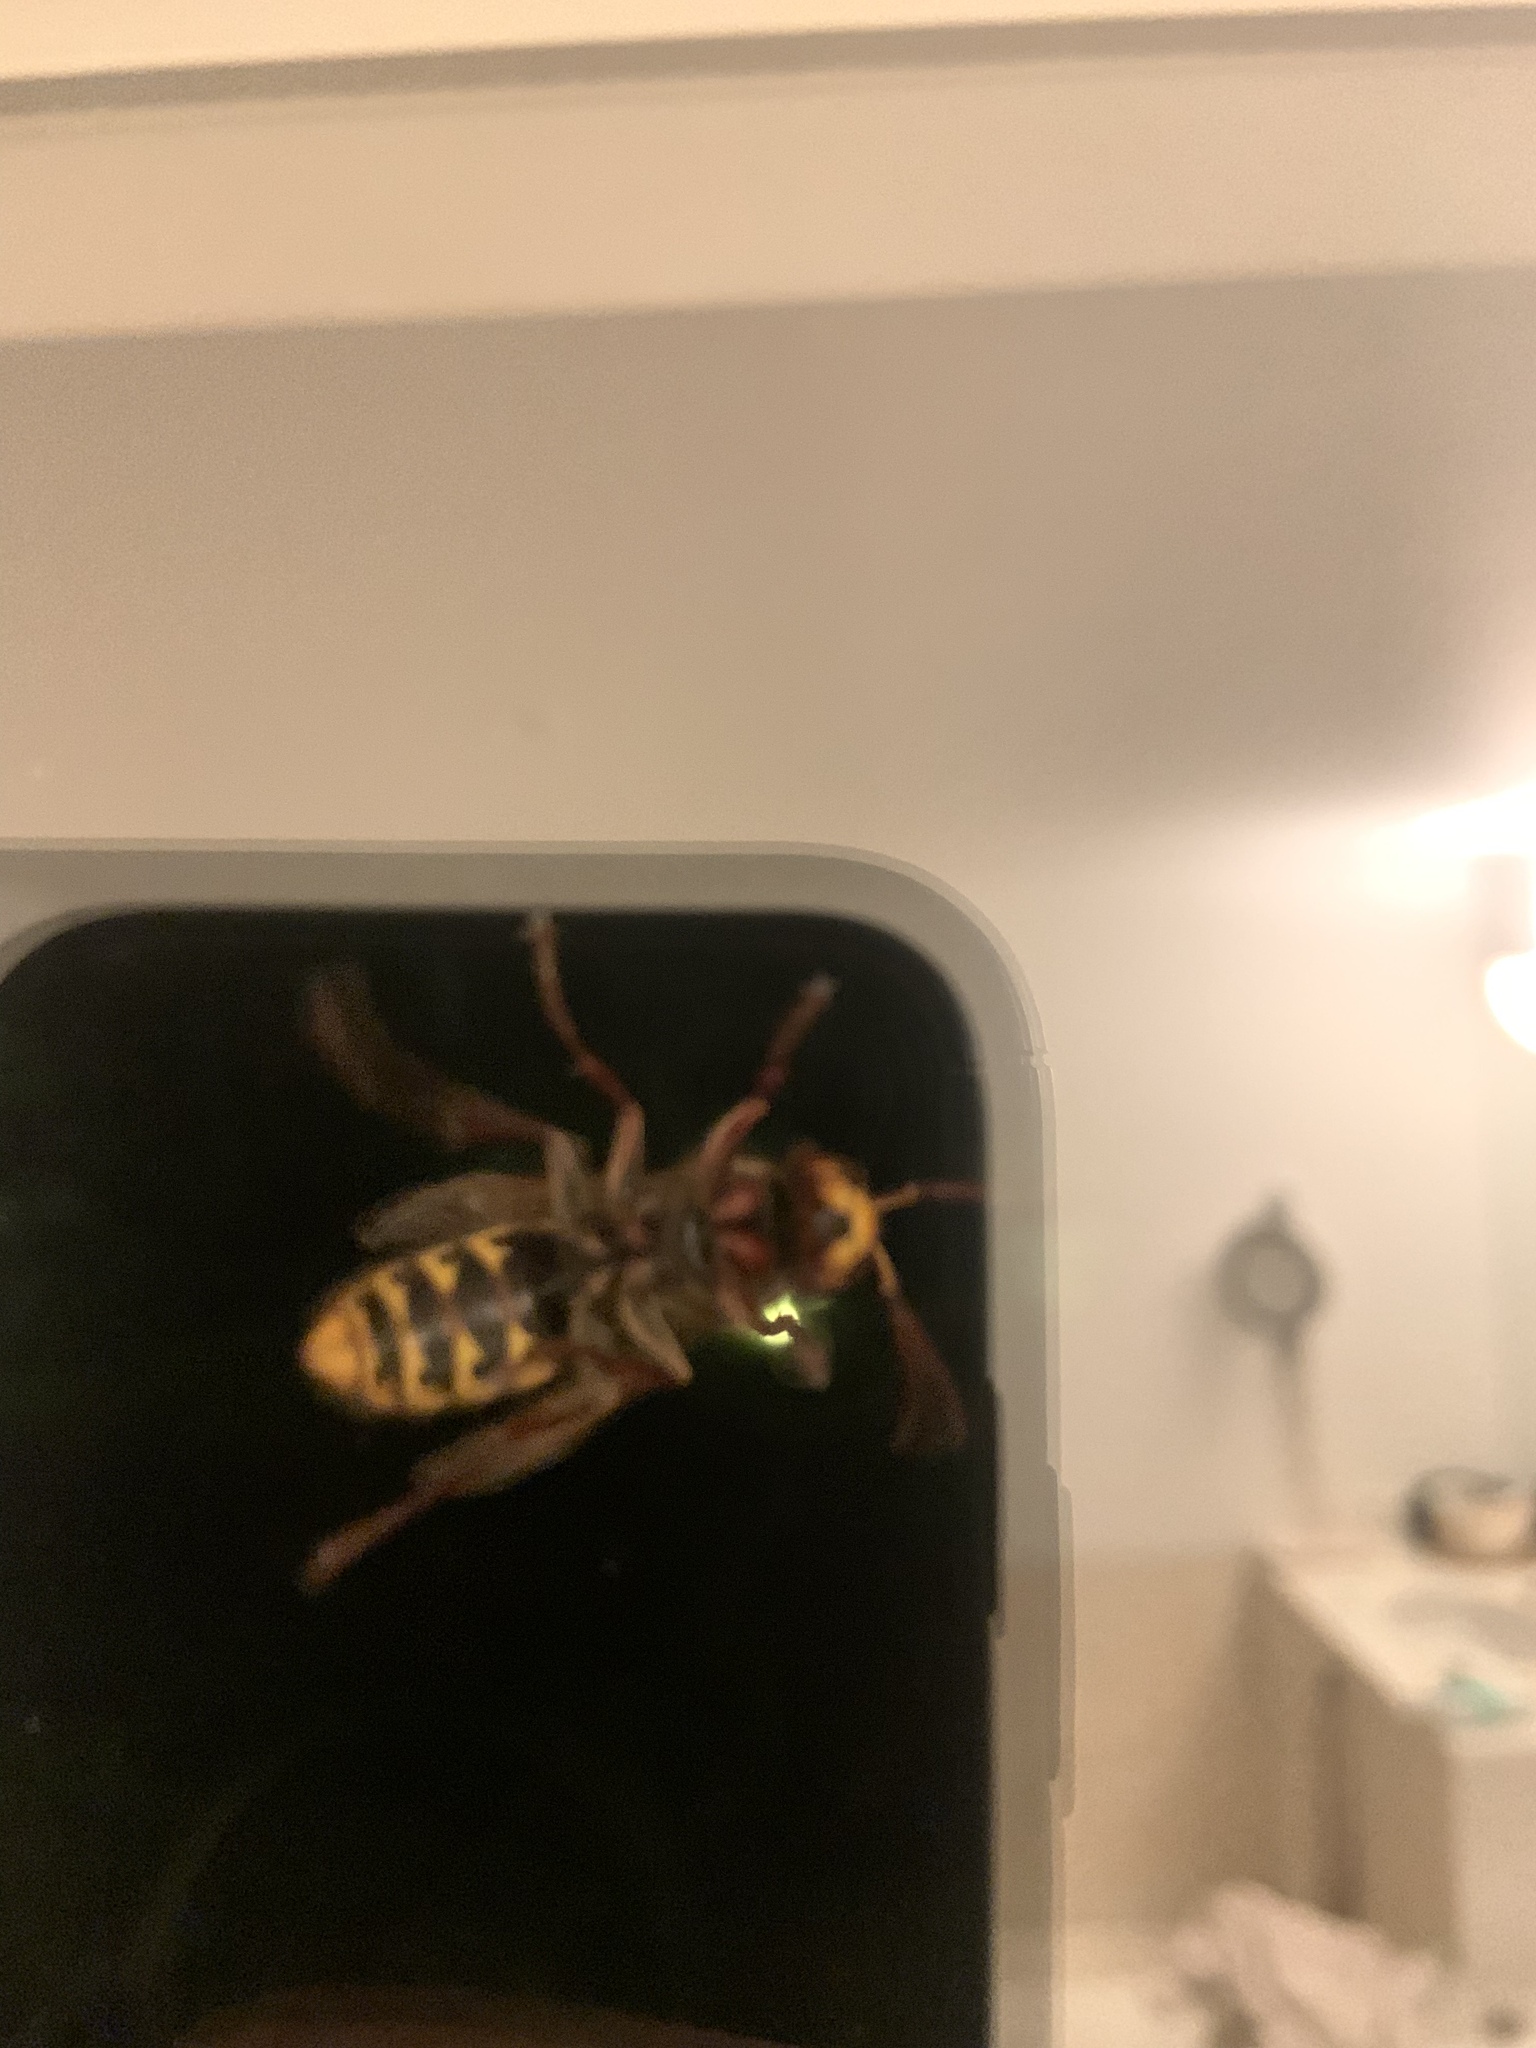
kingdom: Animalia
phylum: Arthropoda
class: Insecta
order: Hymenoptera
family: Vespidae
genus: Vespa
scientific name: Vespa crabro
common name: Hornet
